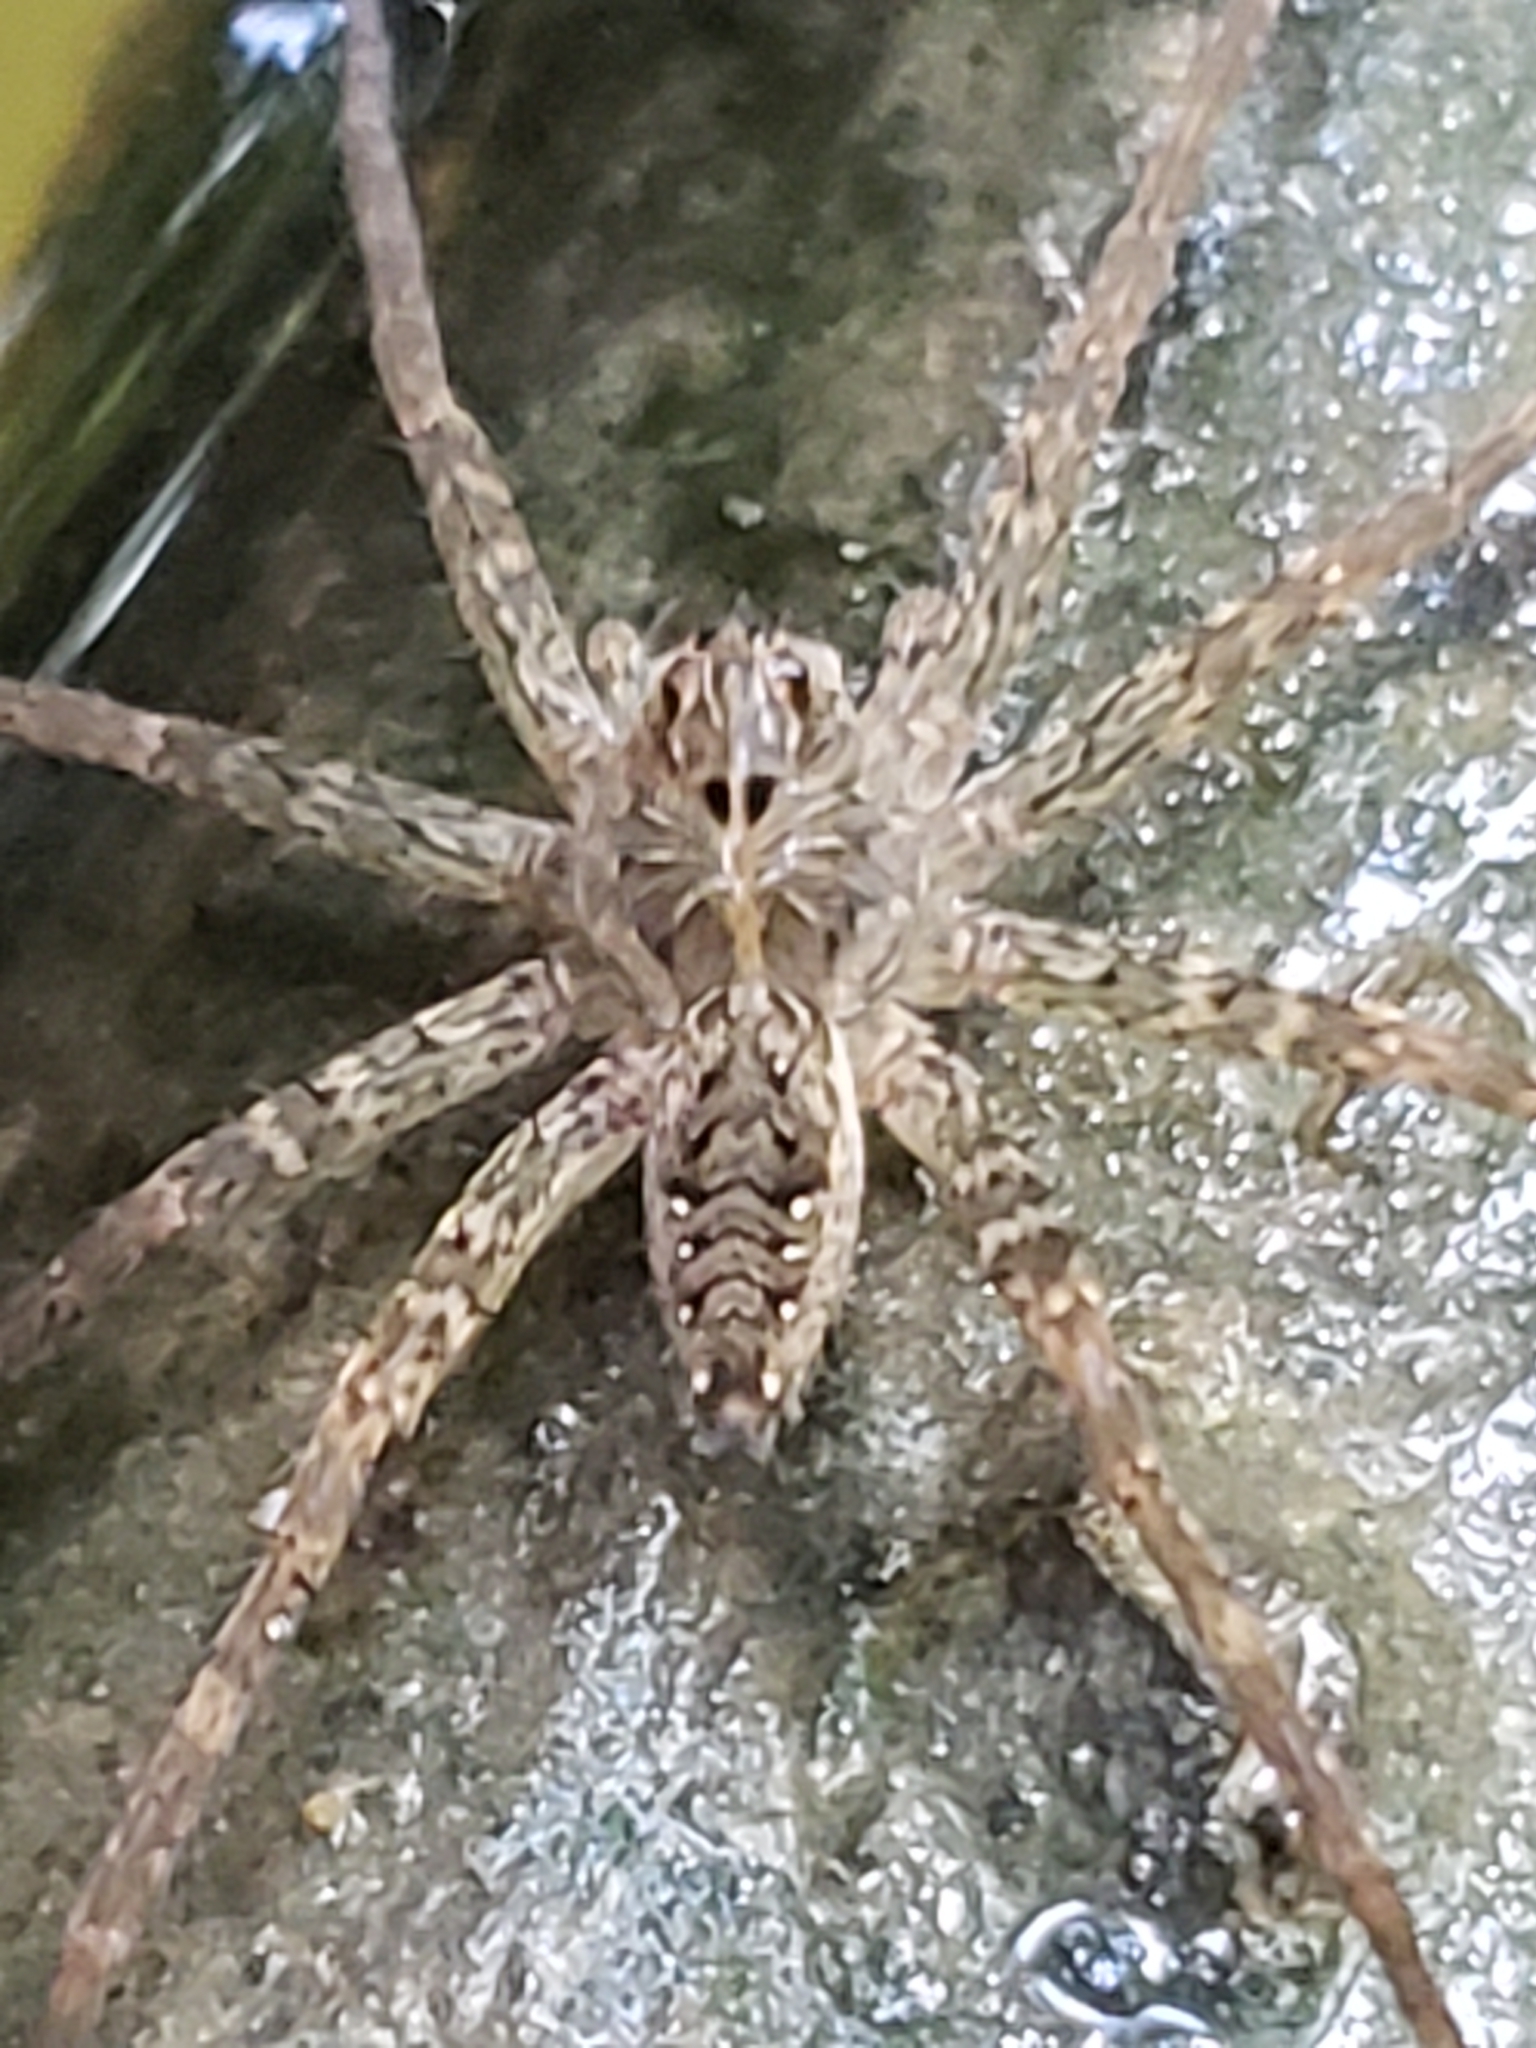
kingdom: Animalia
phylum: Arthropoda
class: Arachnida
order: Araneae
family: Pisauridae
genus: Dolomedes
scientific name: Dolomedes vittatus
